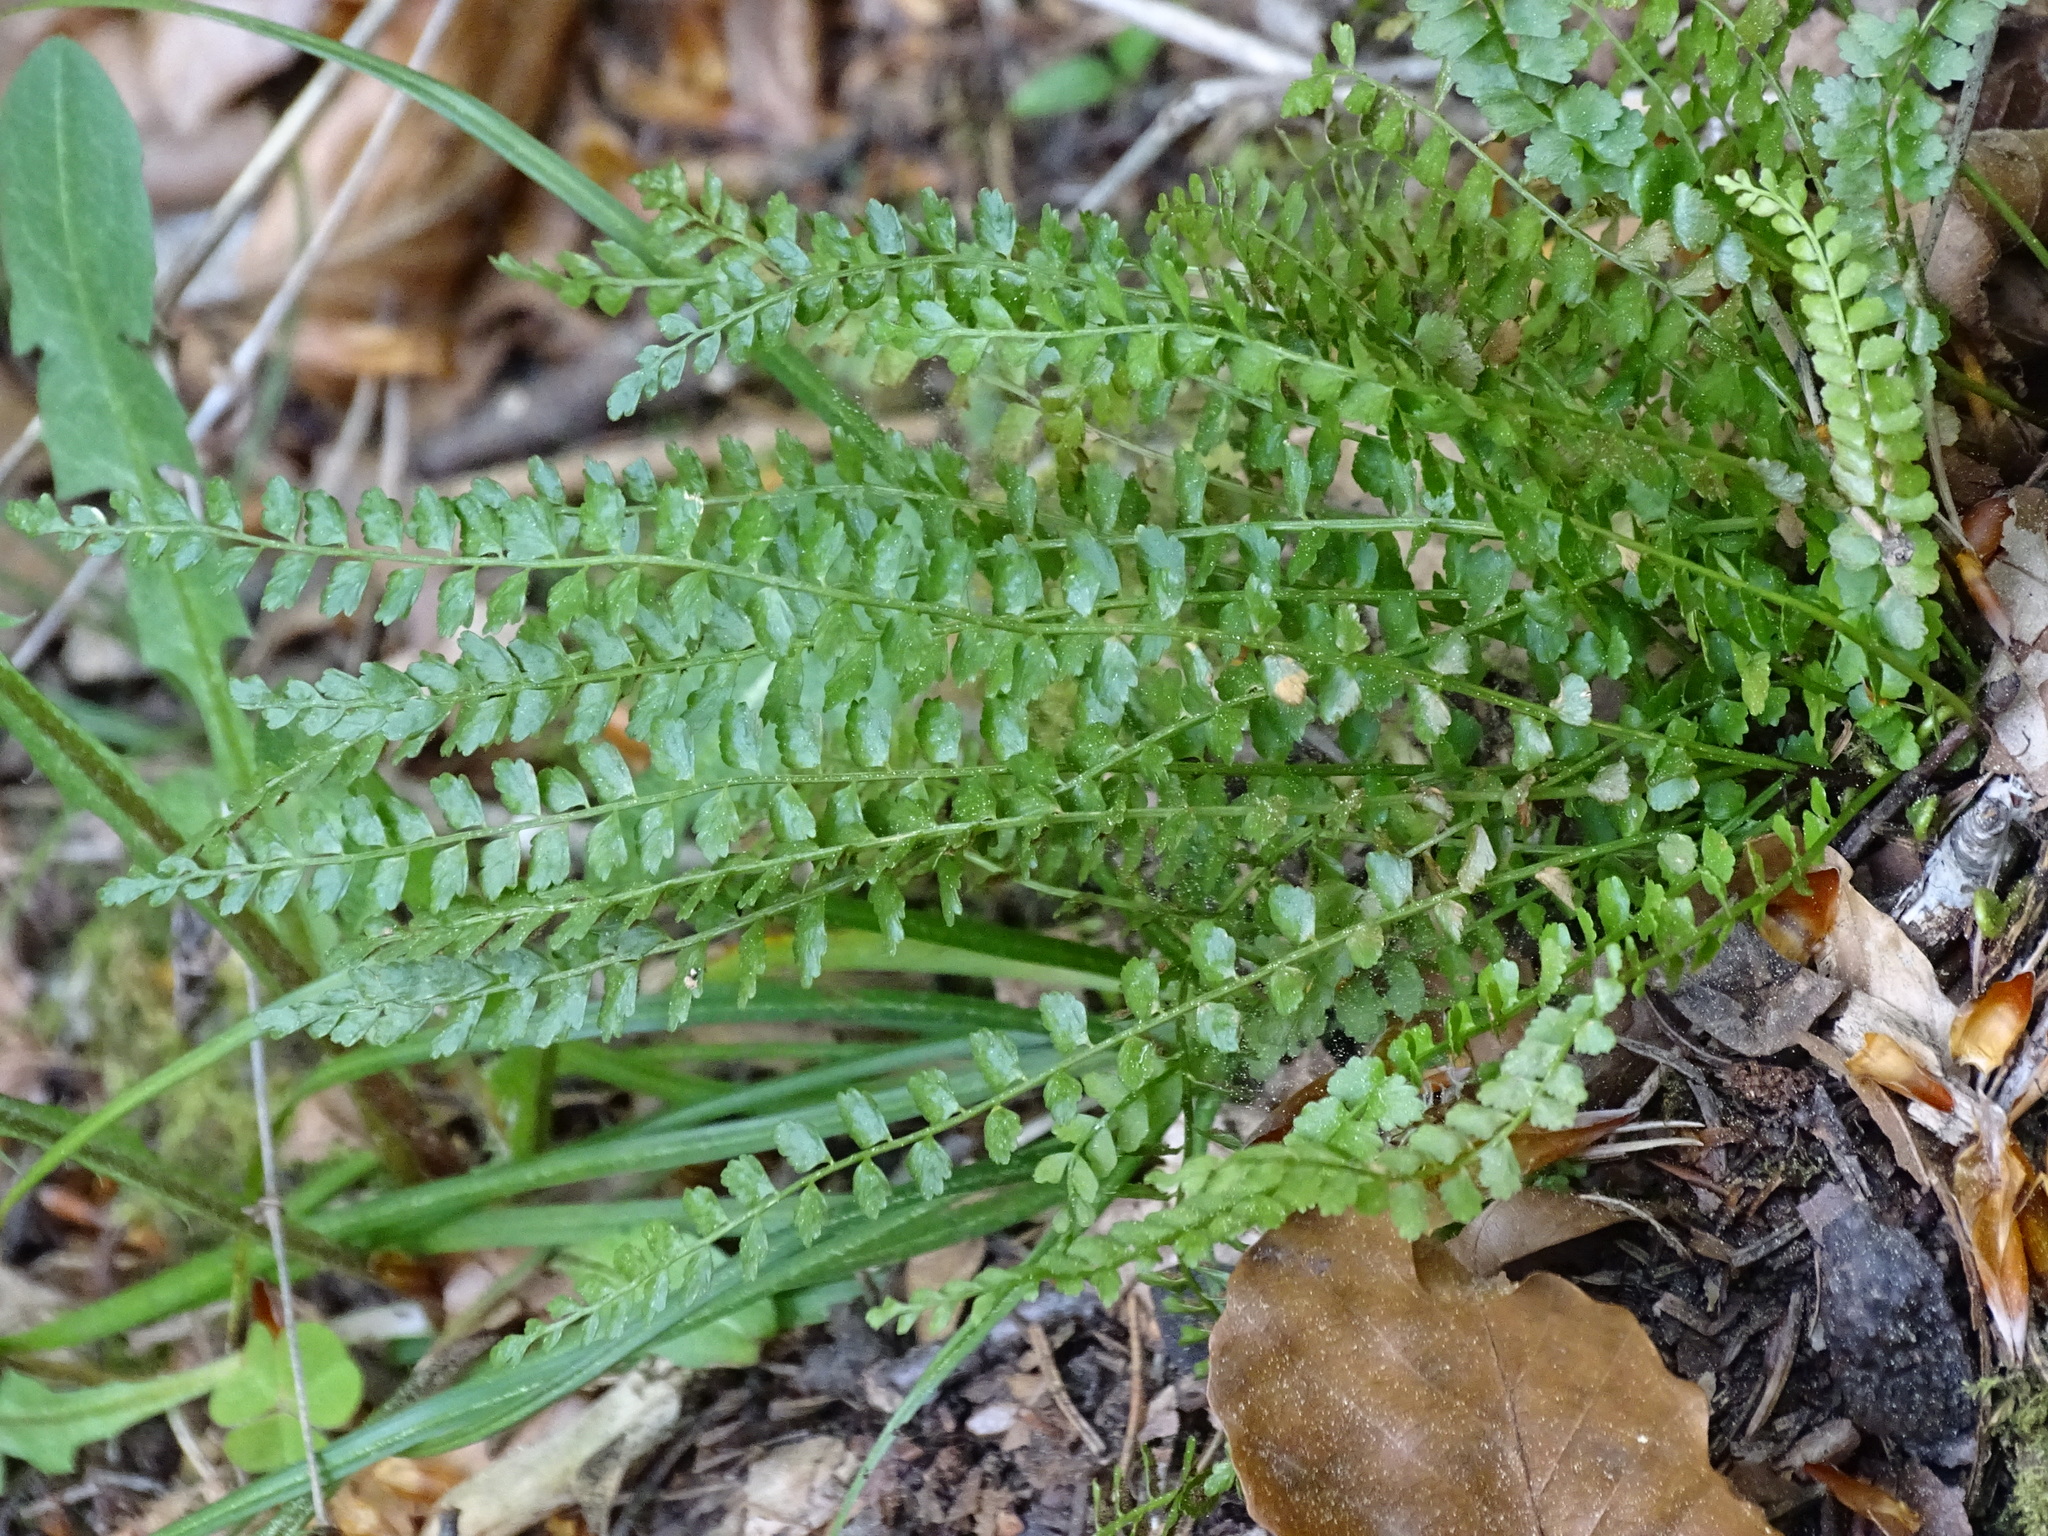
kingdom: Plantae
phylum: Tracheophyta
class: Polypodiopsida
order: Polypodiales
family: Aspleniaceae
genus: Asplenium
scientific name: Asplenium viride
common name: Green spleenwort
